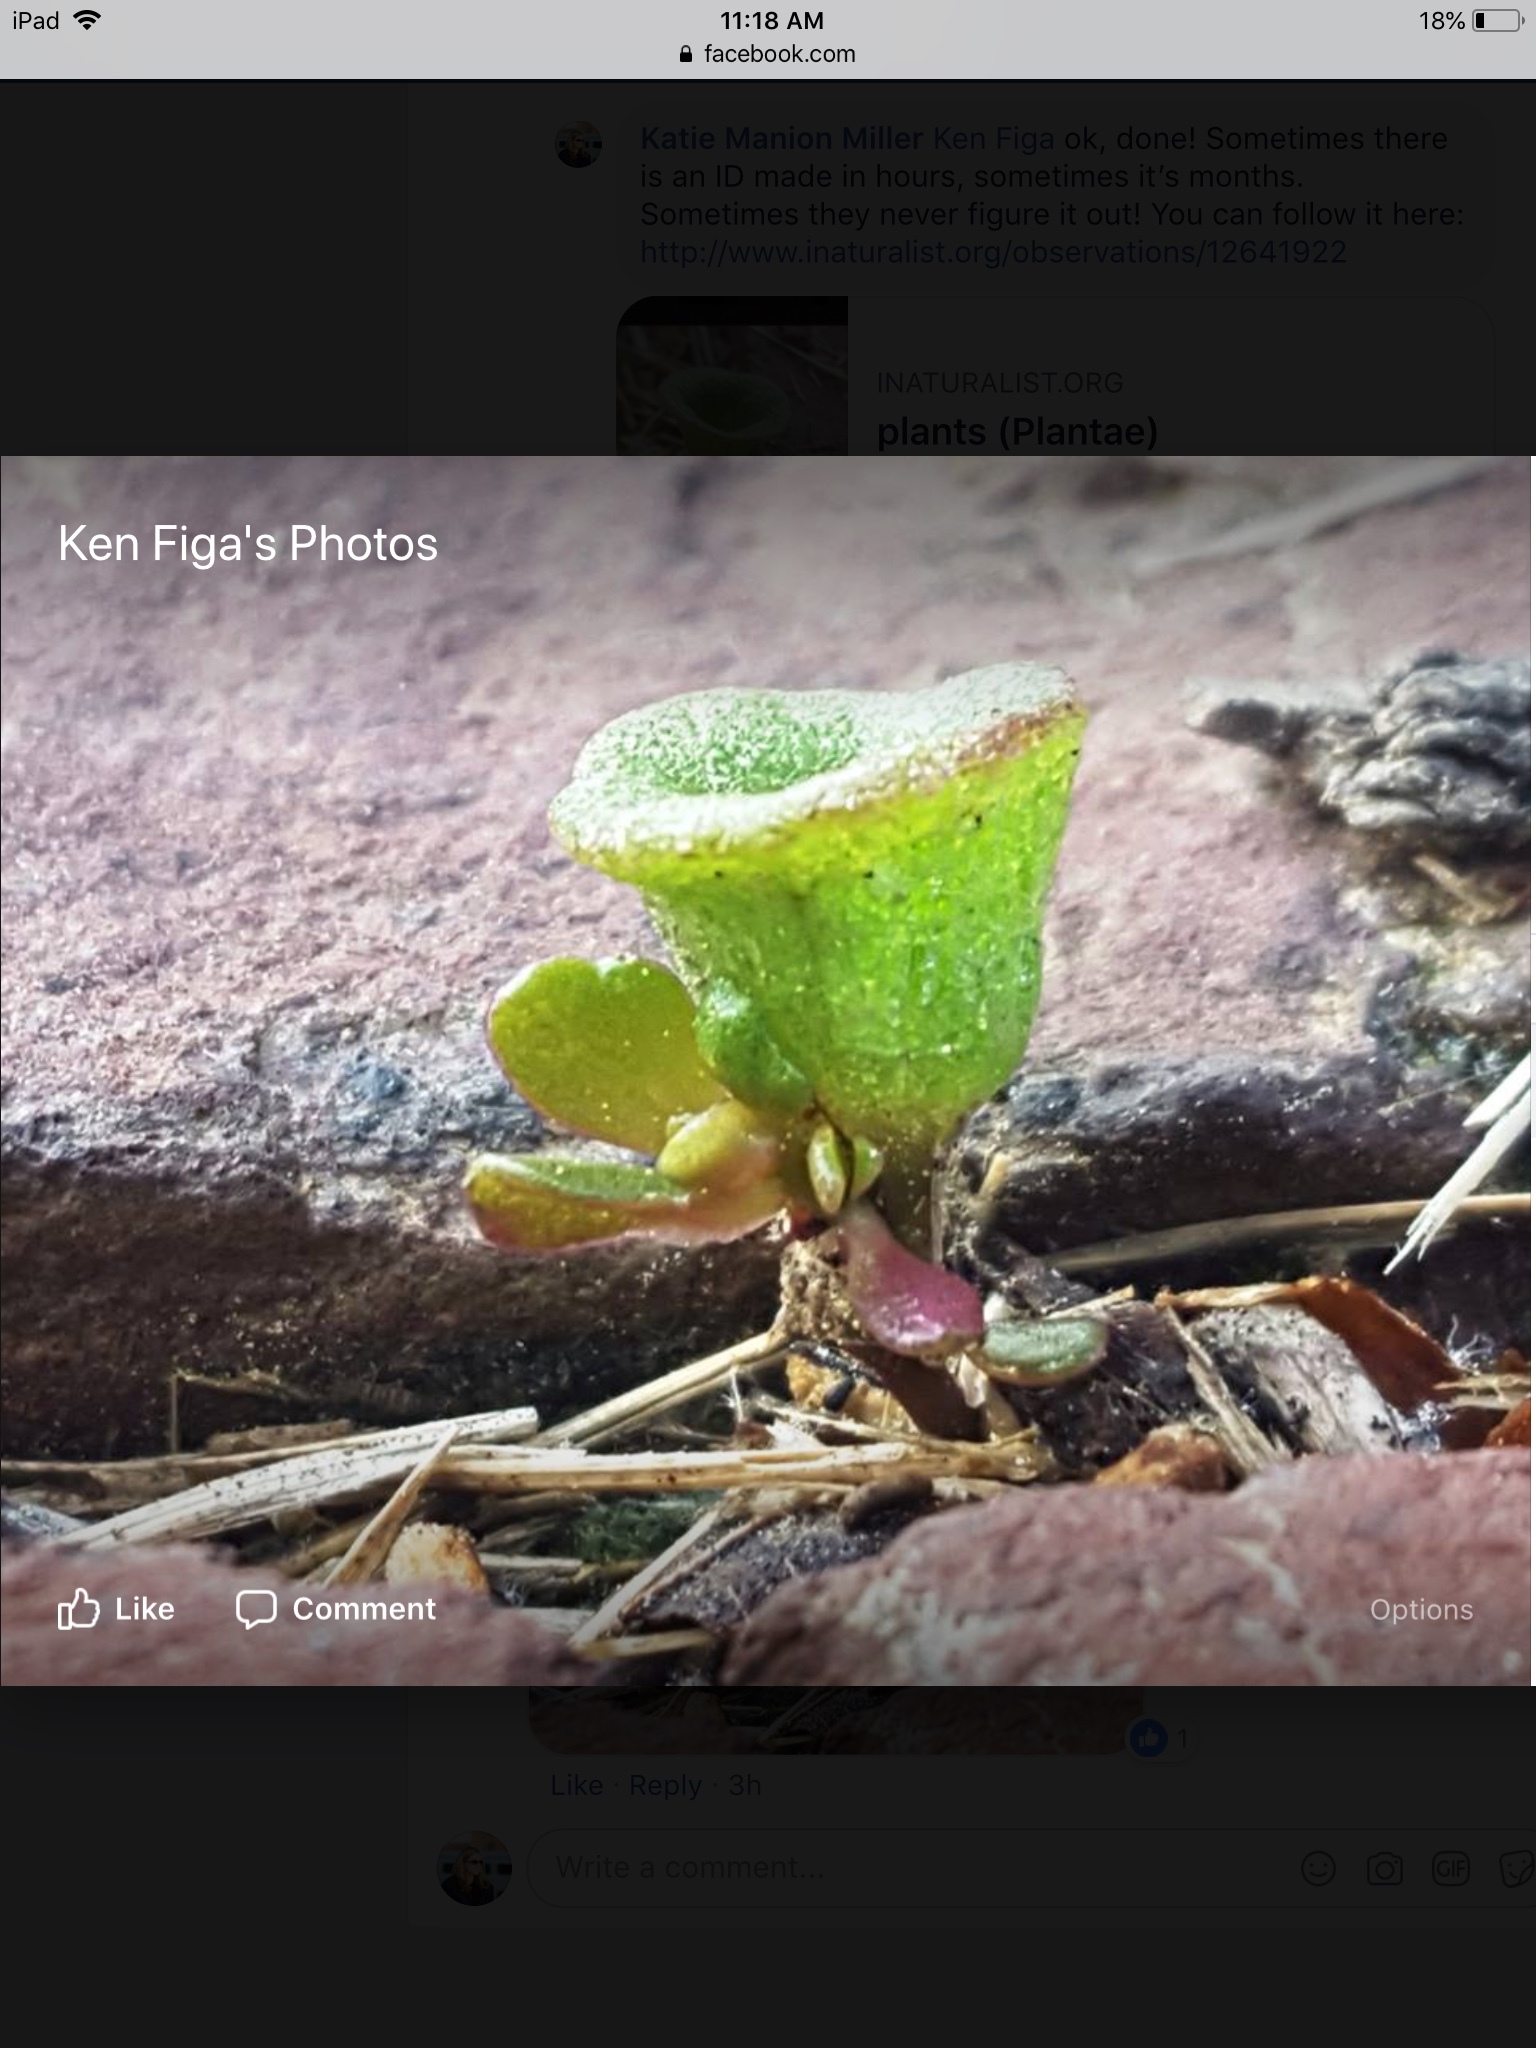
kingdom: Plantae
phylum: Tracheophyta
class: Magnoliopsida
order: Caryophyllales
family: Portulacaceae
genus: Portulaca
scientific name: Portulaca oleracea
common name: Common purslane
